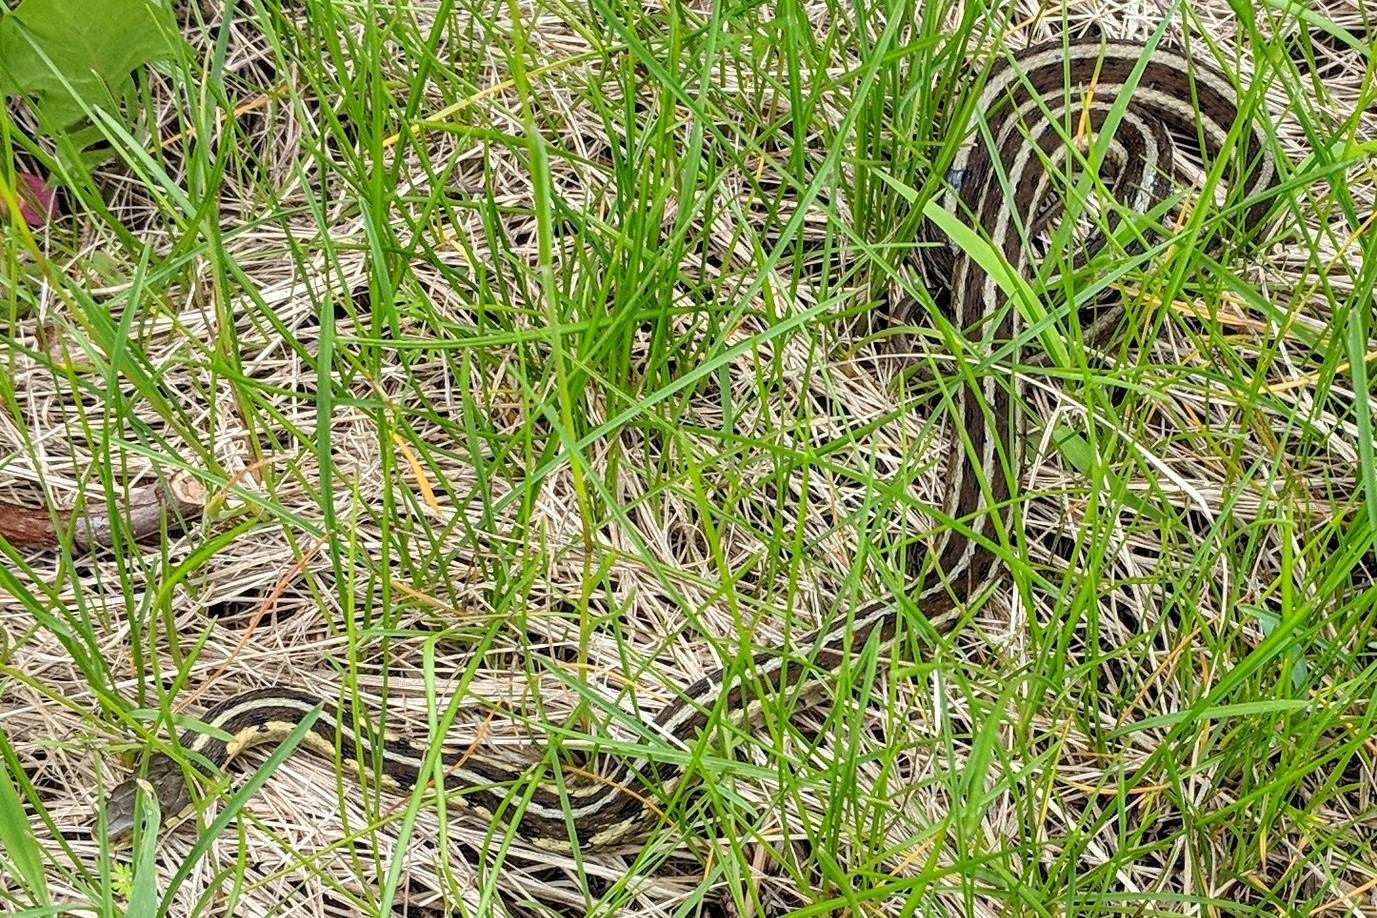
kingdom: Animalia
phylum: Chordata
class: Squamata
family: Colubridae
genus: Thamnophis
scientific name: Thamnophis sirtalis
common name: Common garter snake
